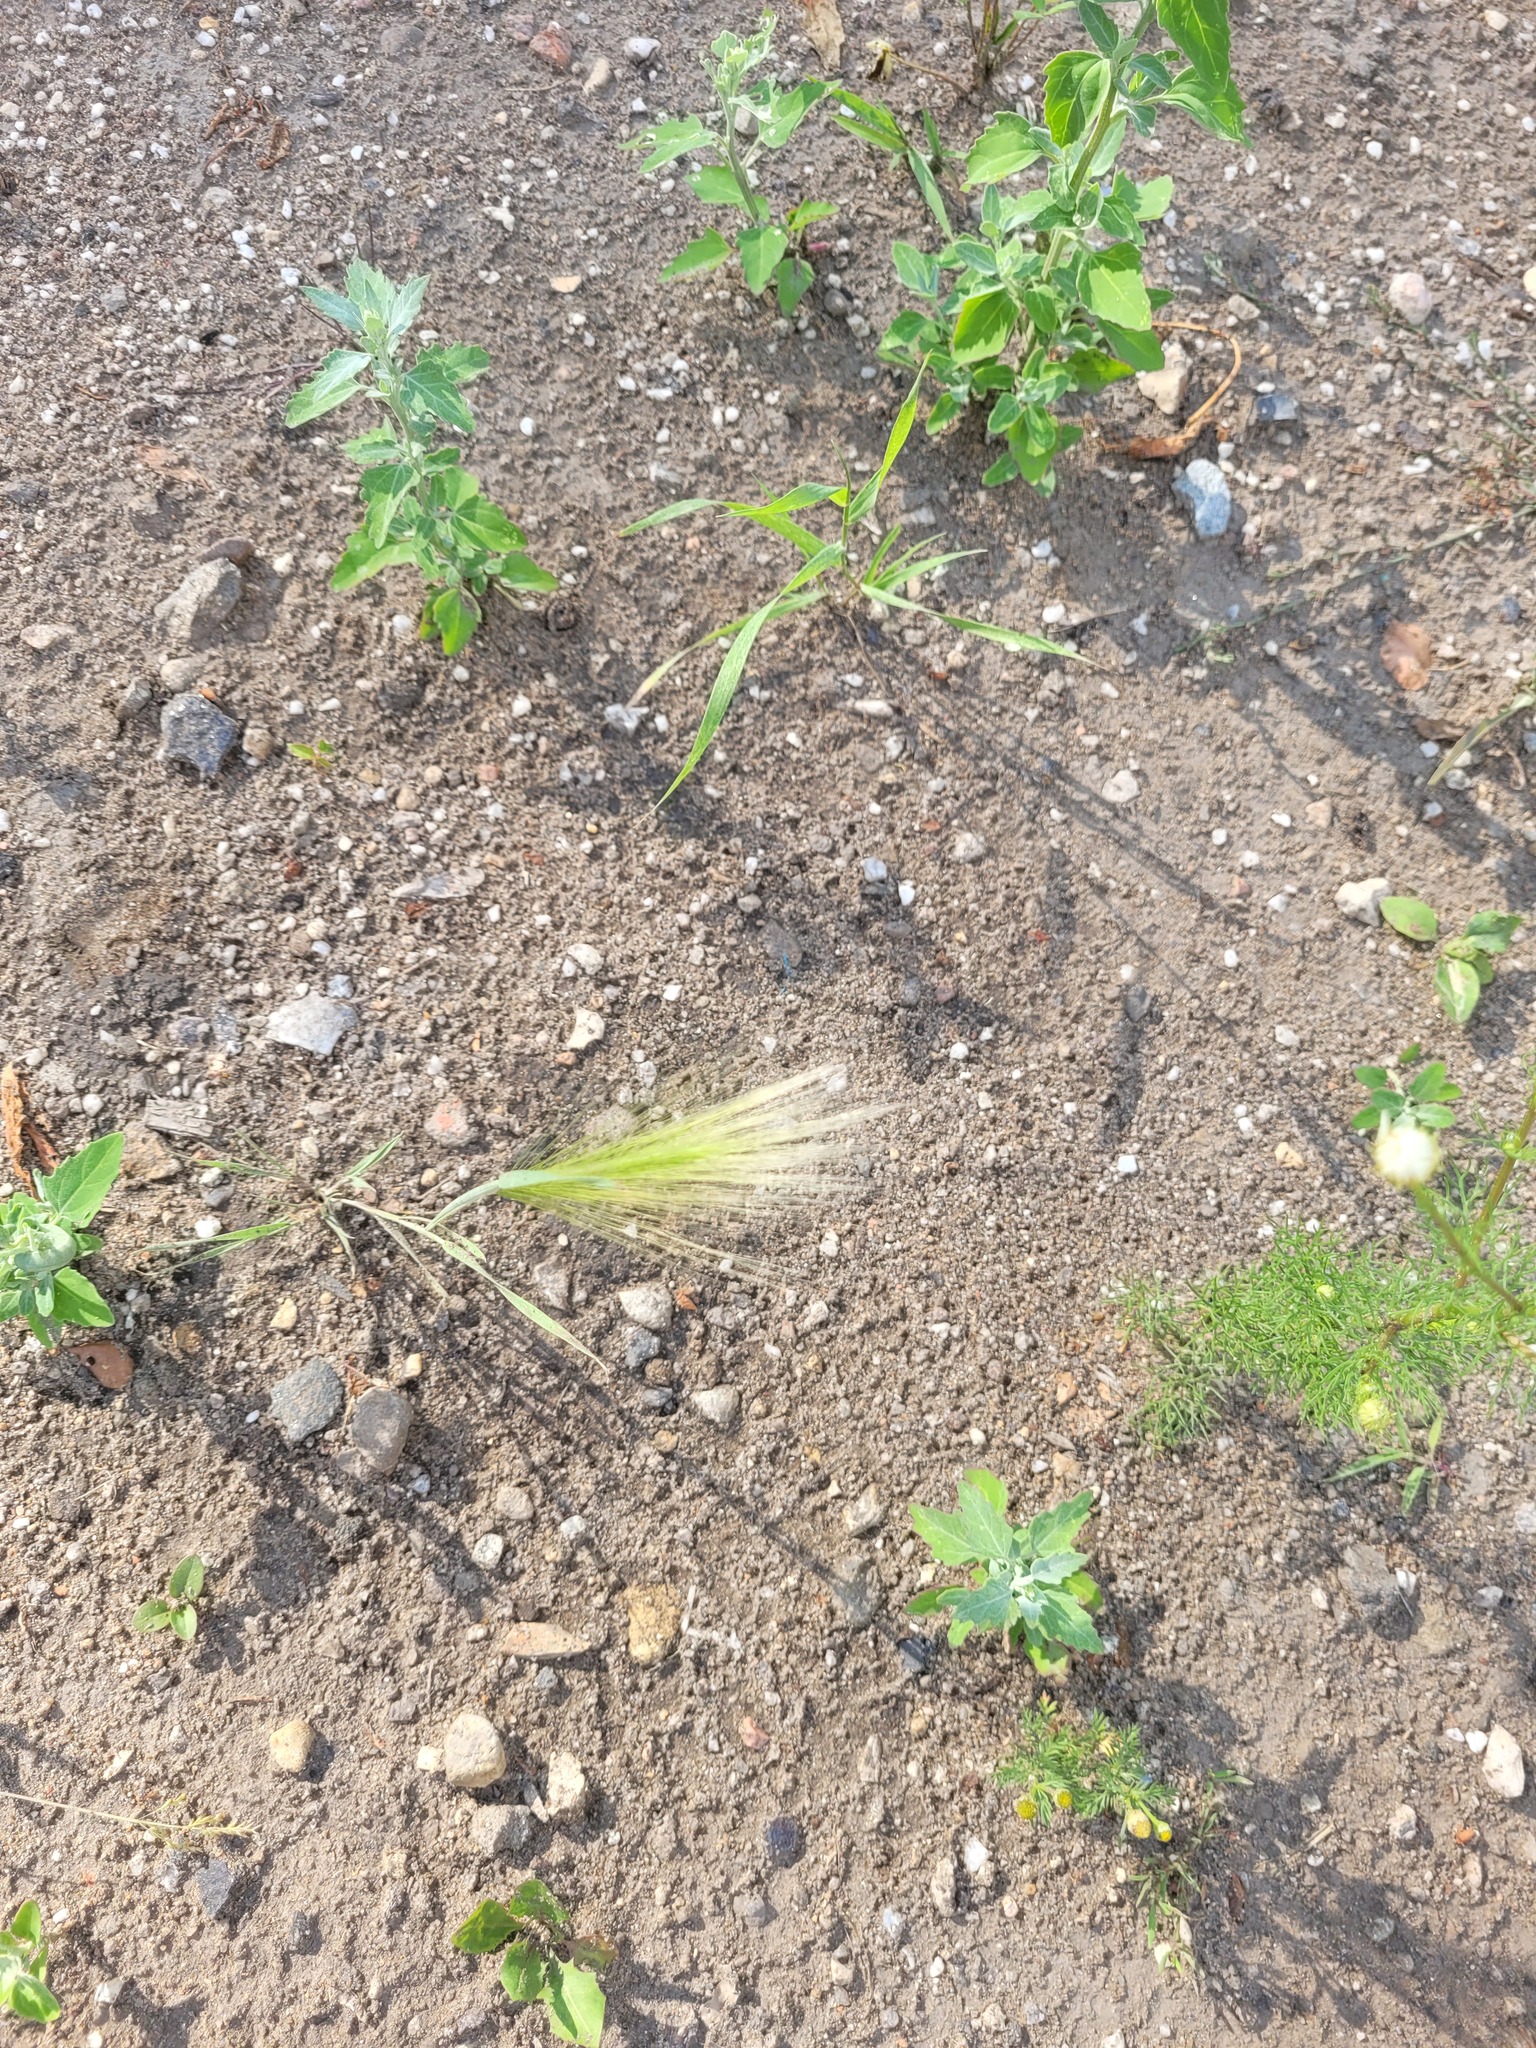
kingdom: Plantae
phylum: Tracheophyta
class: Liliopsida
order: Poales
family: Poaceae
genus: Hordeum
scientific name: Hordeum jubatum
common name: Foxtail barley
